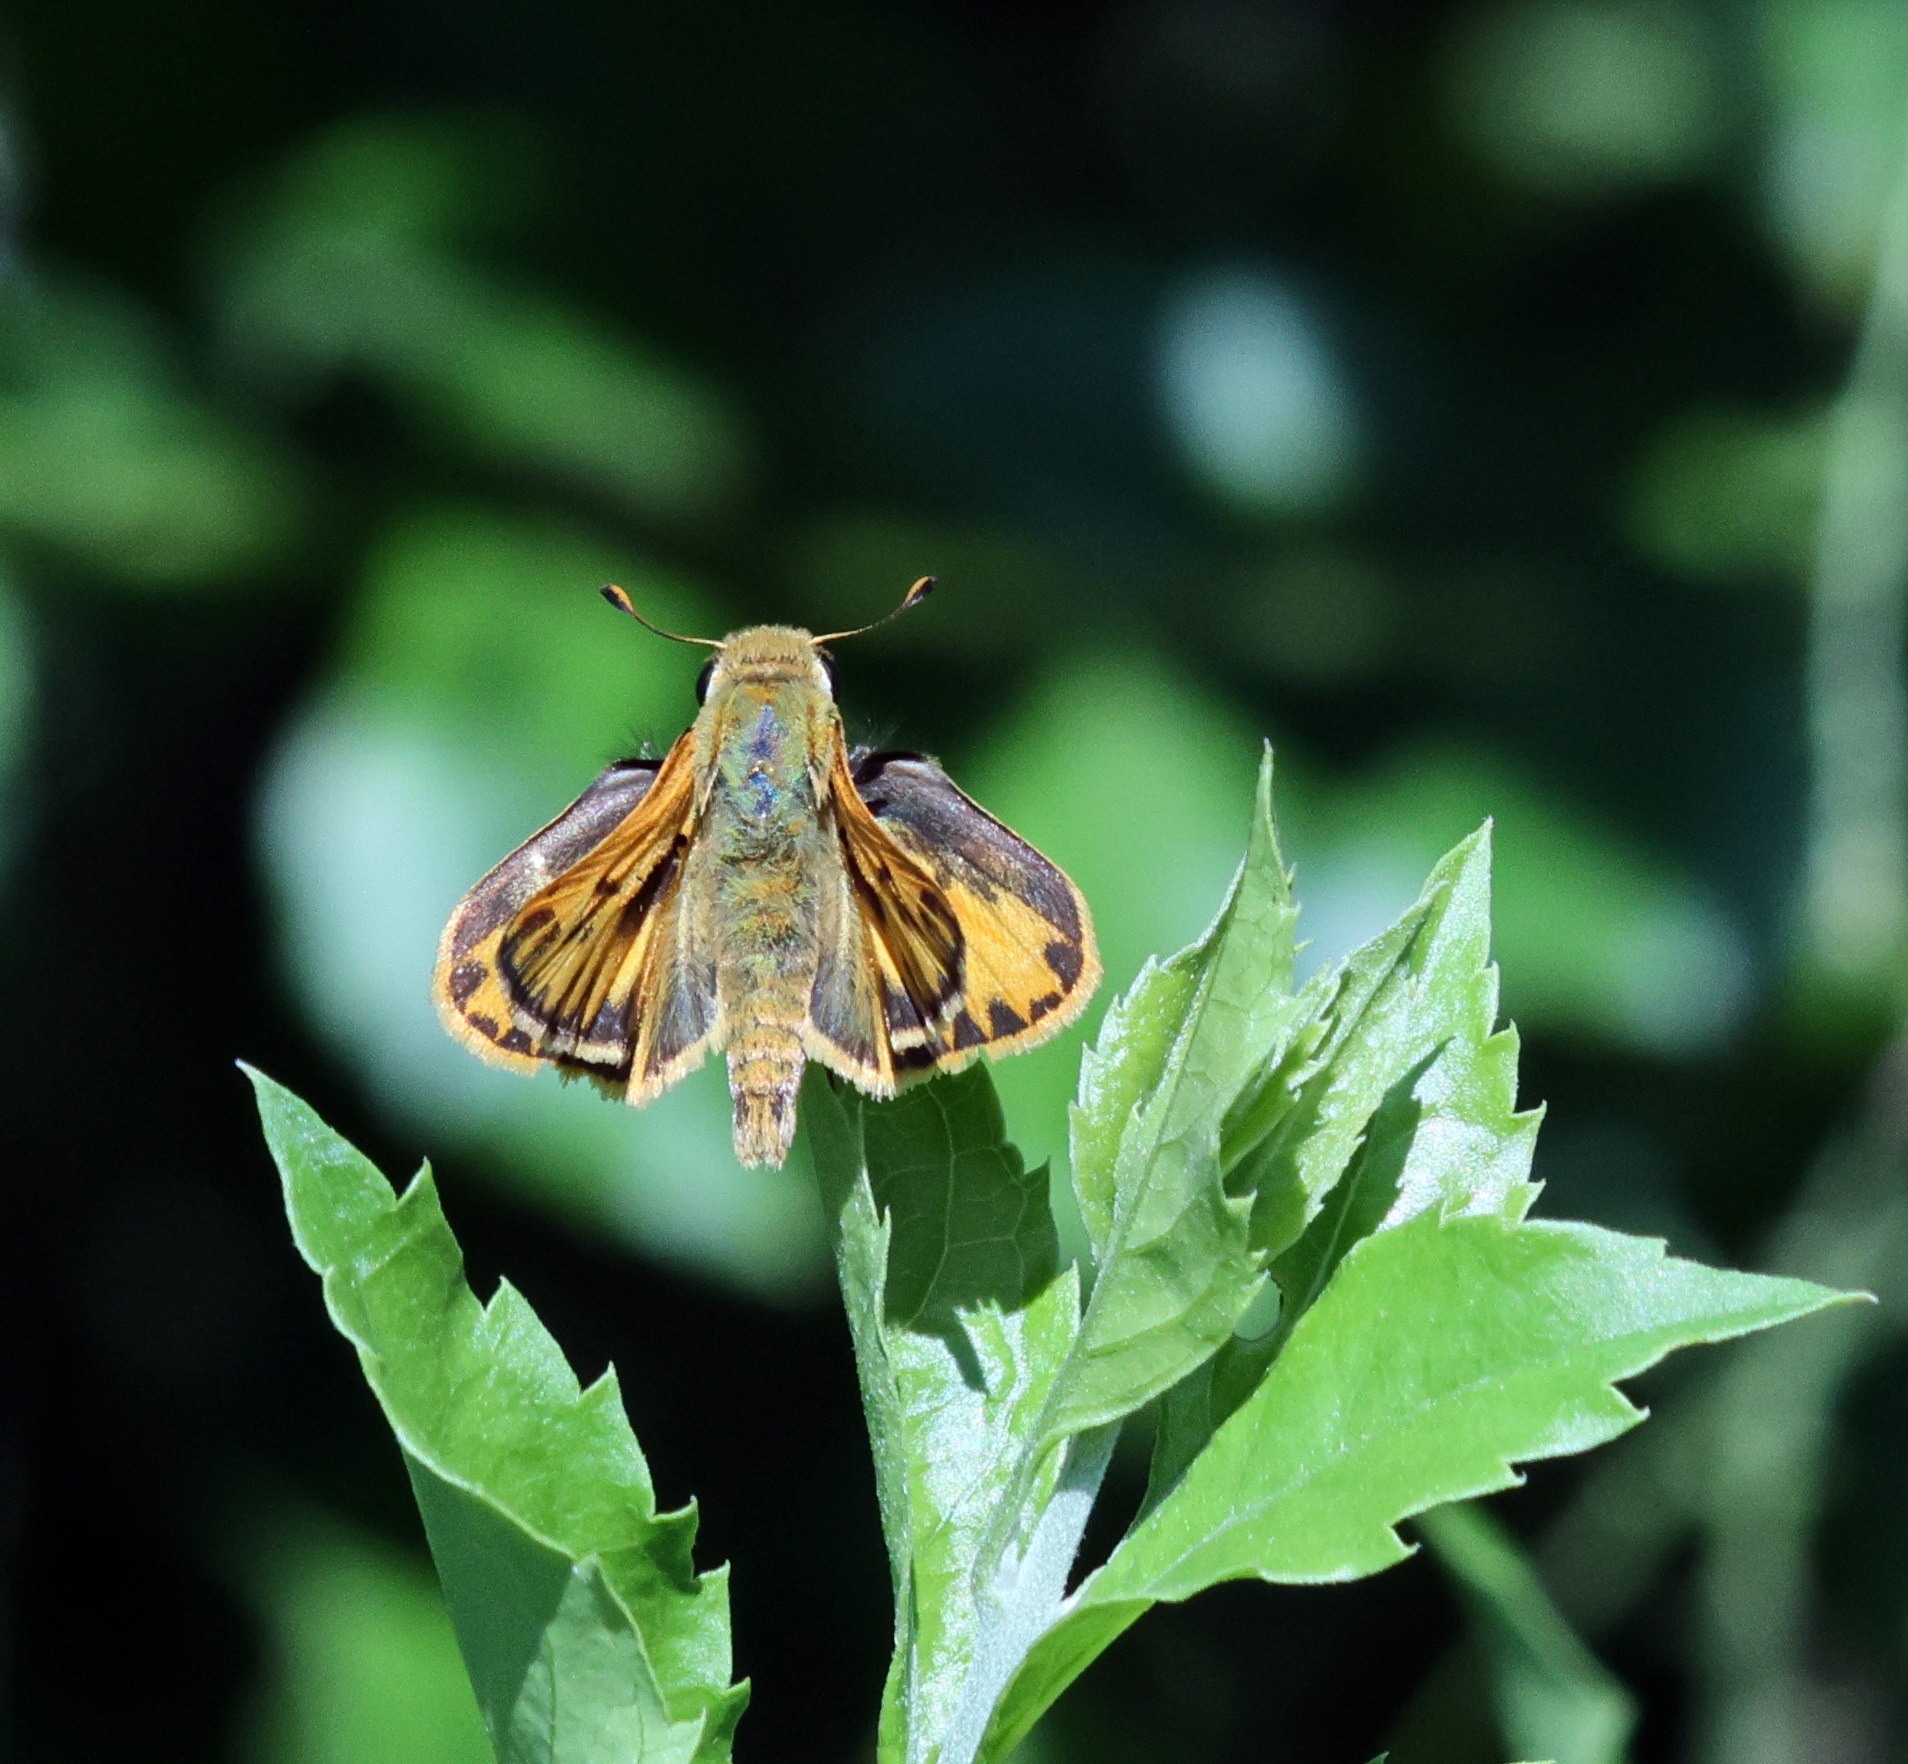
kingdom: Animalia
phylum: Arthropoda
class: Insecta
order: Lepidoptera
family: Hesperiidae
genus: Hylephila
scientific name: Hylephila phyleus
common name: Fiery skipper
